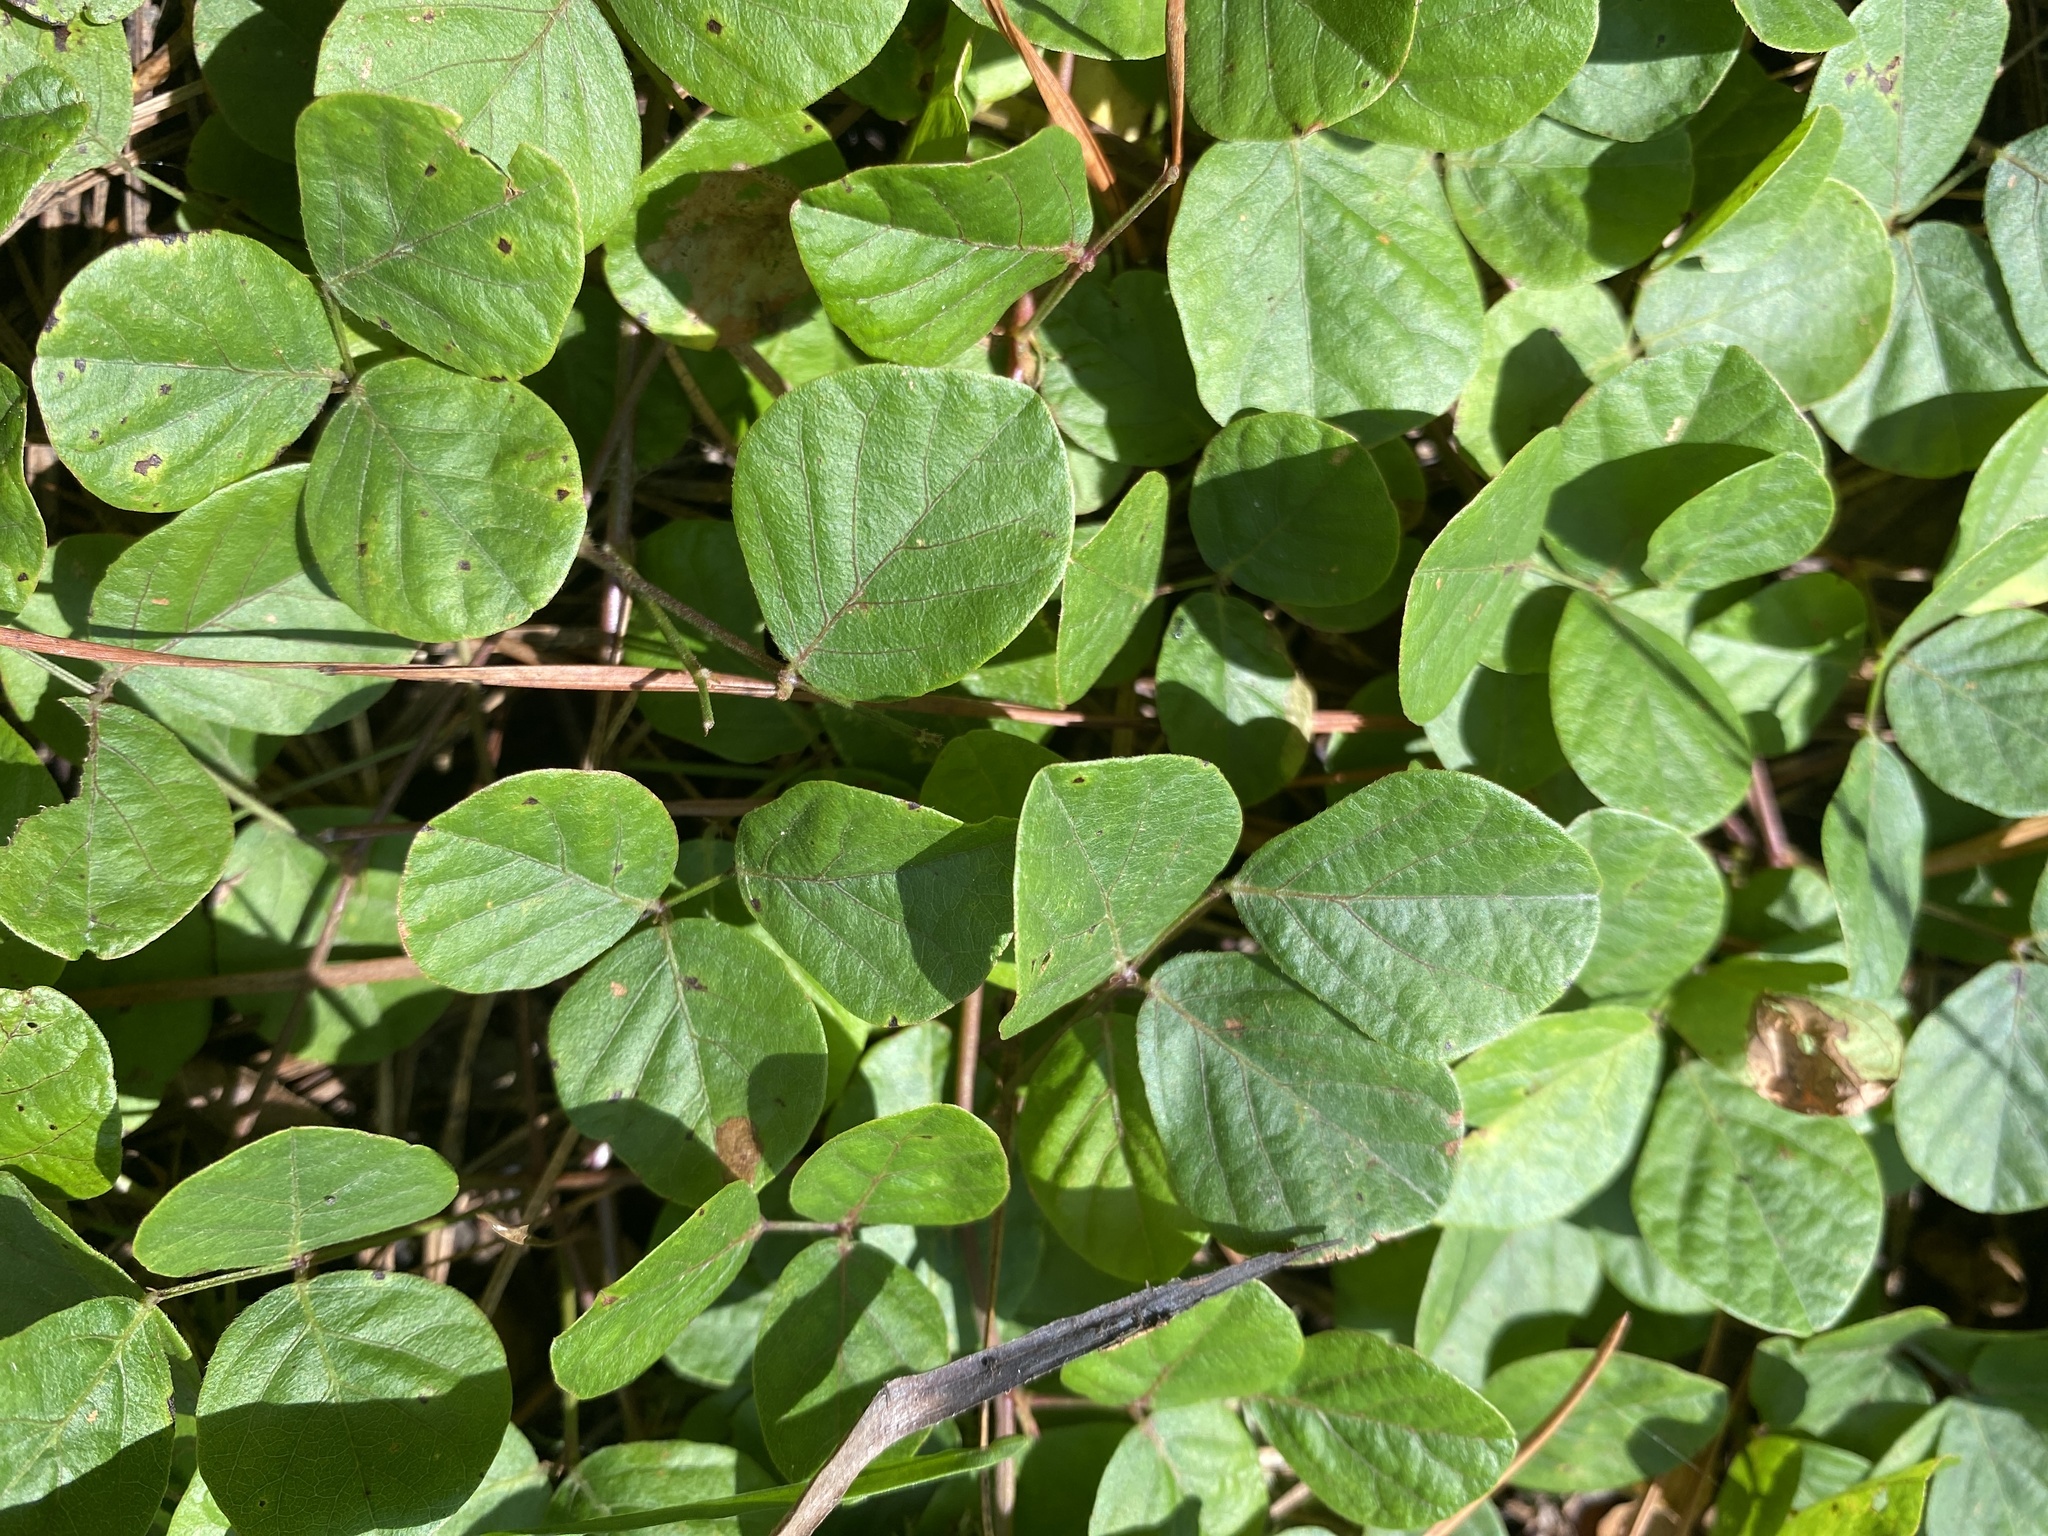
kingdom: Plantae
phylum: Tracheophyta
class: Magnoliopsida
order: Fabales
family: Fabaceae
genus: Desmodium
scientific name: Desmodium lineatum
